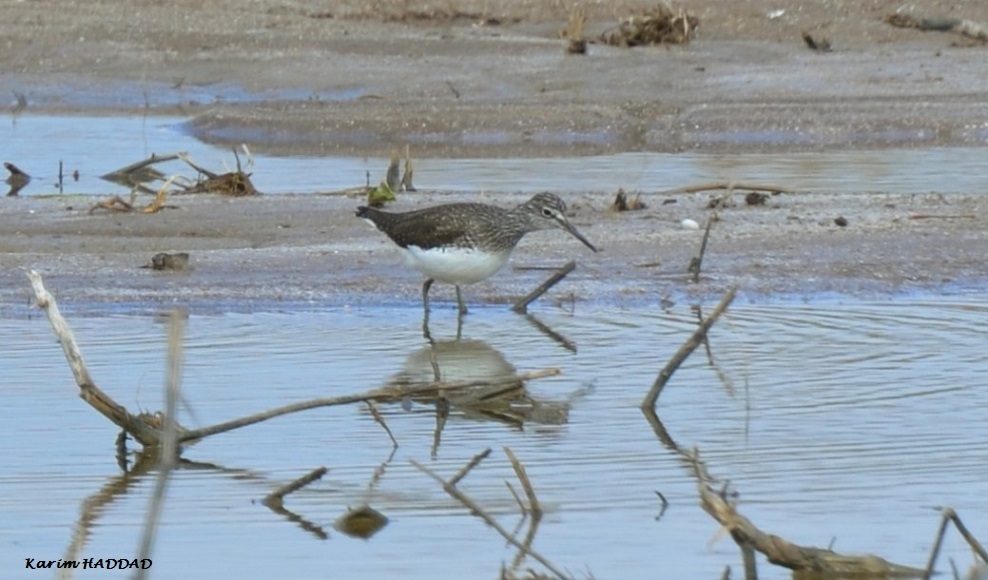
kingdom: Animalia
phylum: Chordata
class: Aves
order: Charadriiformes
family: Scolopacidae
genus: Tringa
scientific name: Tringa ochropus
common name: Green sandpiper
